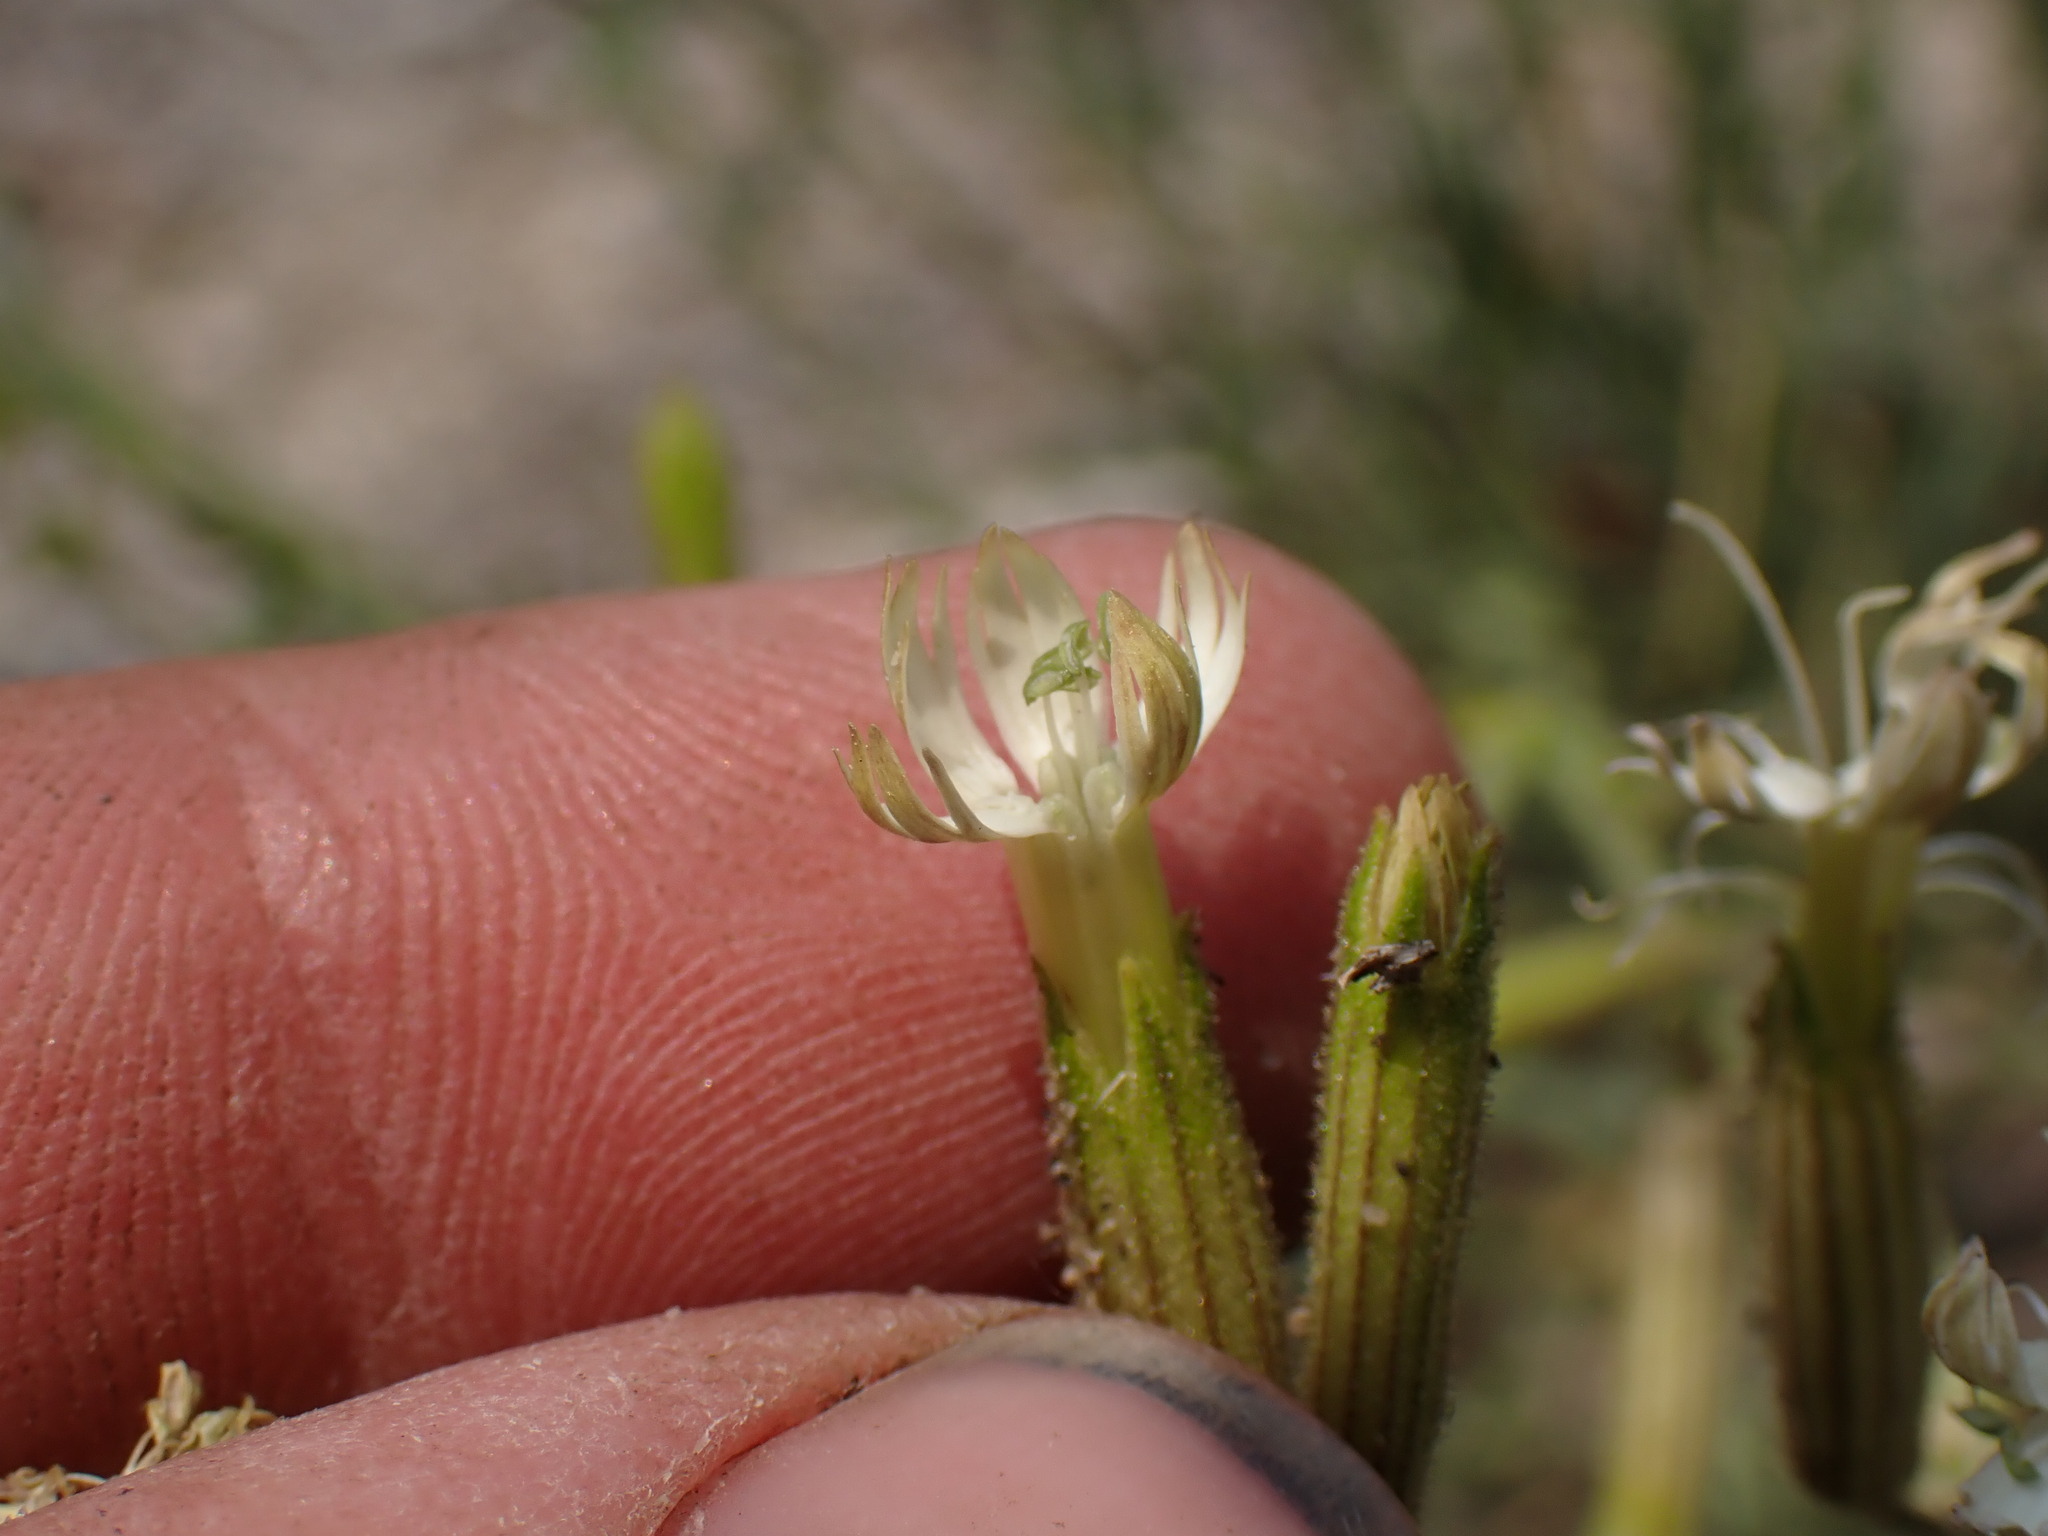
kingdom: Plantae
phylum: Tracheophyta
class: Magnoliopsida
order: Caryophyllales
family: Caryophyllaceae
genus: Silene
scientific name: Silene bernardina
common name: Palmer's catchfly
